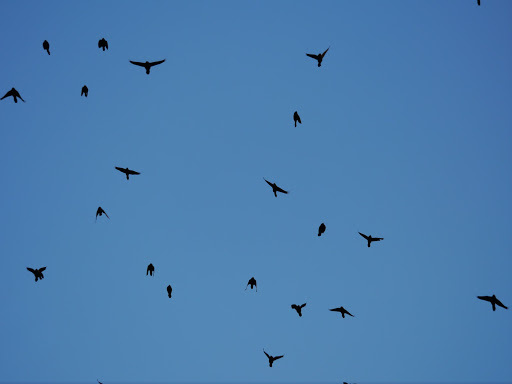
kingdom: Animalia
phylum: Chordata
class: Aves
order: Passeriformes
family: Icteridae
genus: Quiscalus
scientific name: Quiscalus quiscula
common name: Common grackle
